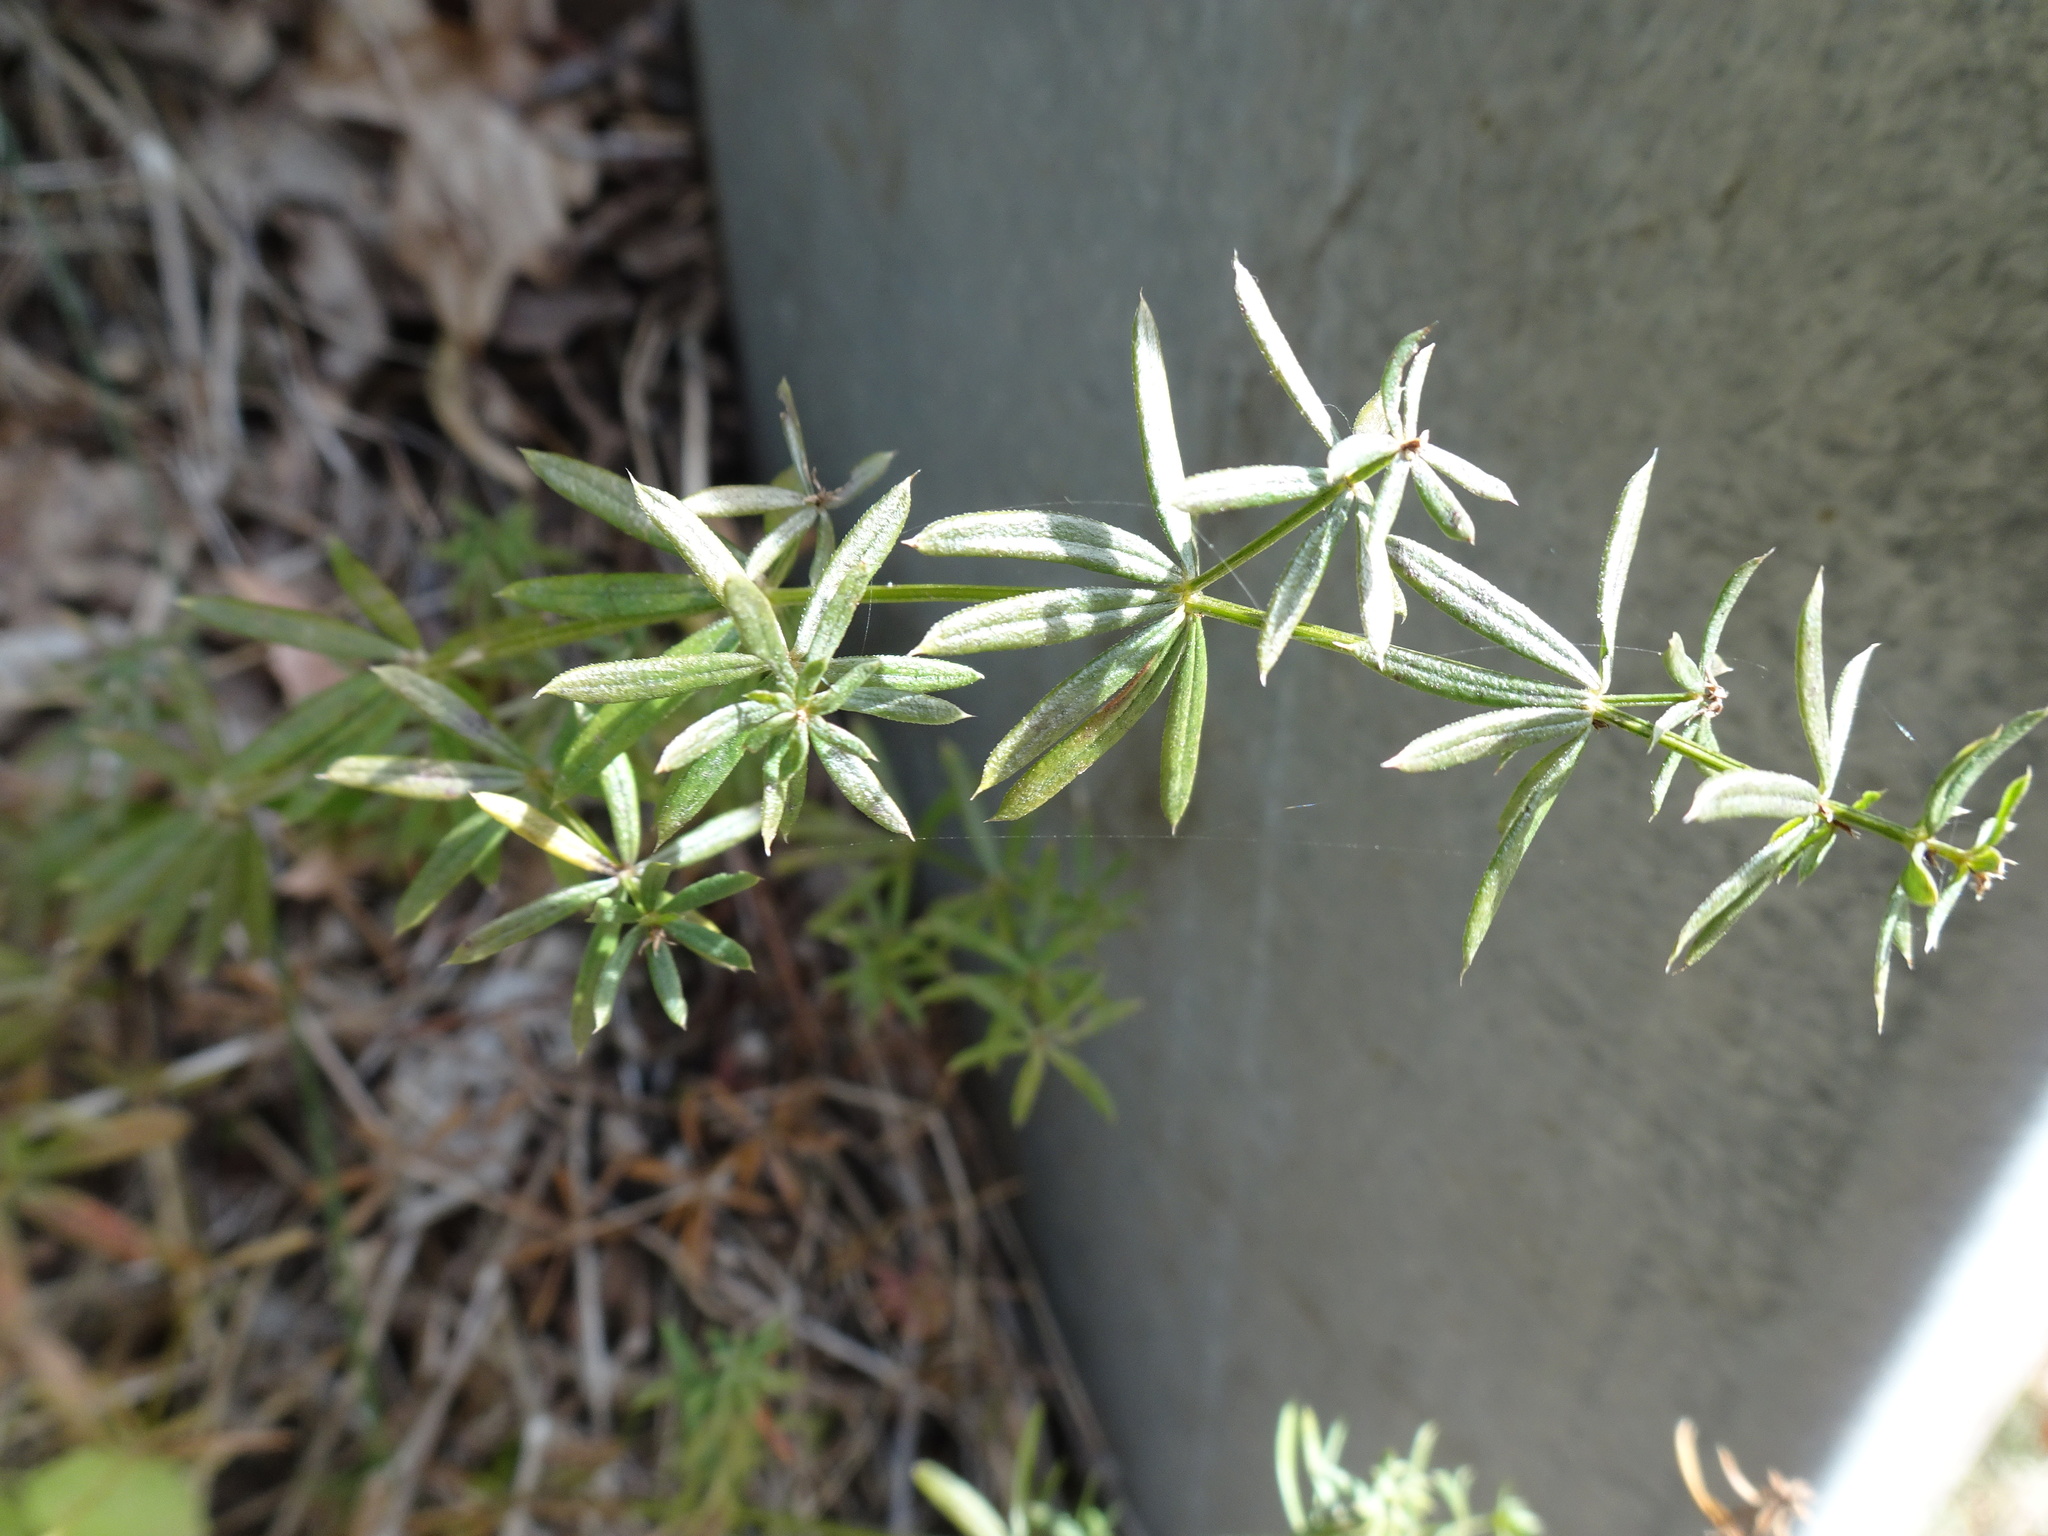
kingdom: Plantae
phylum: Tracheophyta
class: Magnoliopsida
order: Gentianales
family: Rubiaceae
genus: Galium
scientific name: Galium aparine
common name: Cleavers
